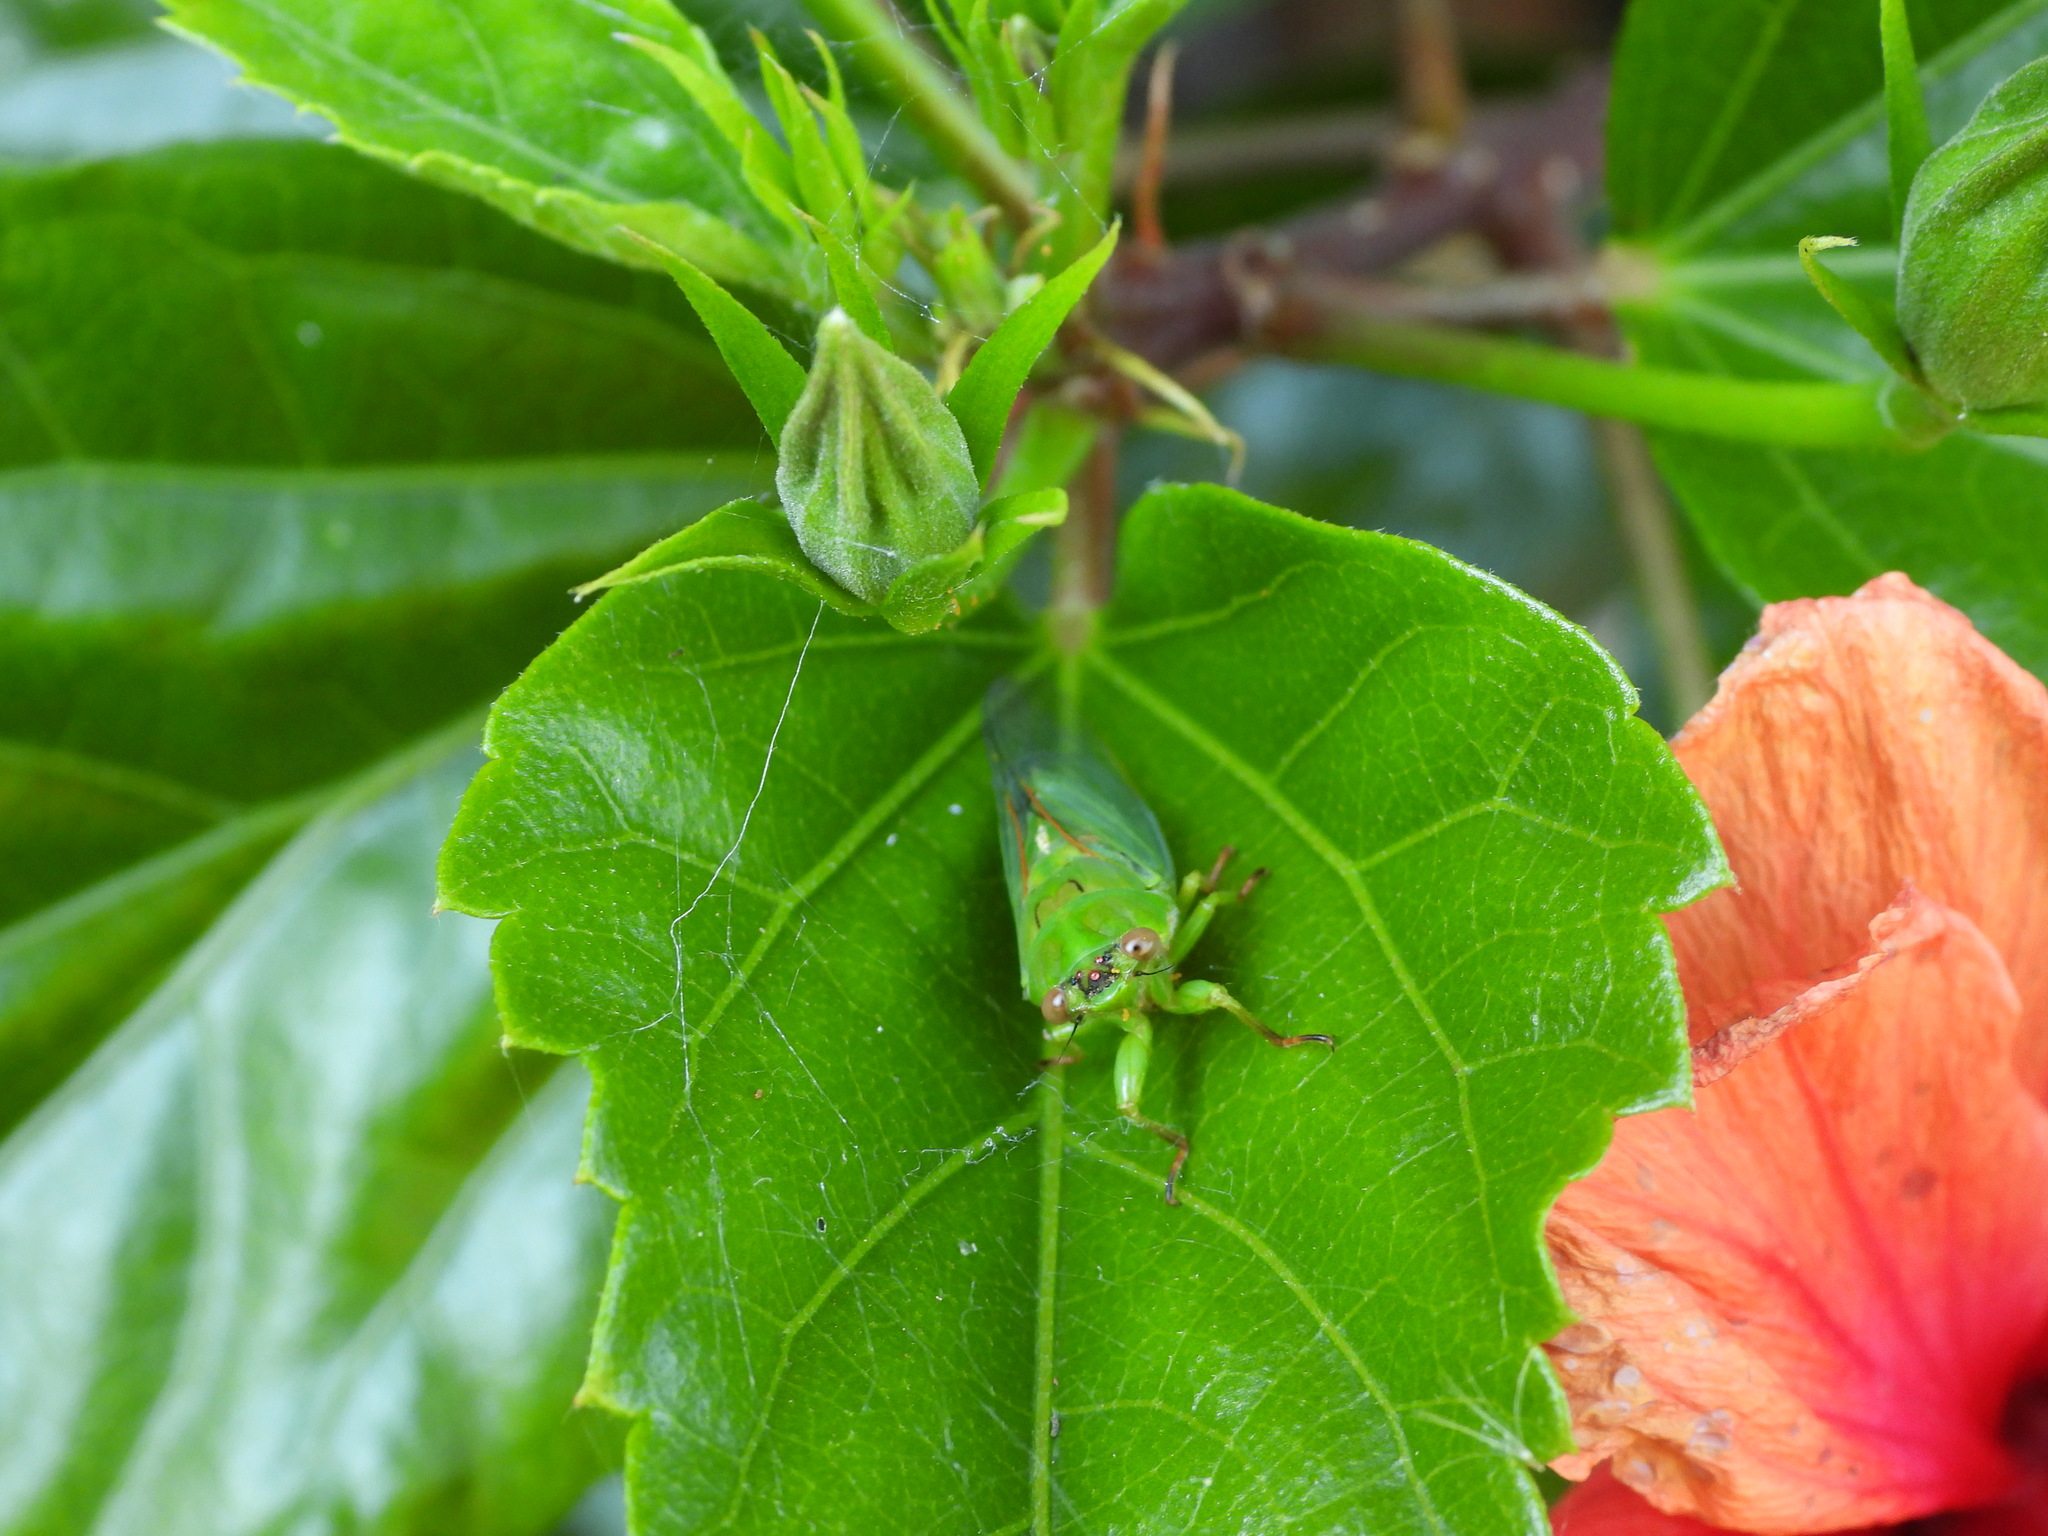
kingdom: Animalia
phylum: Arthropoda
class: Insecta
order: Hemiptera
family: Cicadidae
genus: Kikihia
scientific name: Kikihia ochrina
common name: April green cicada
